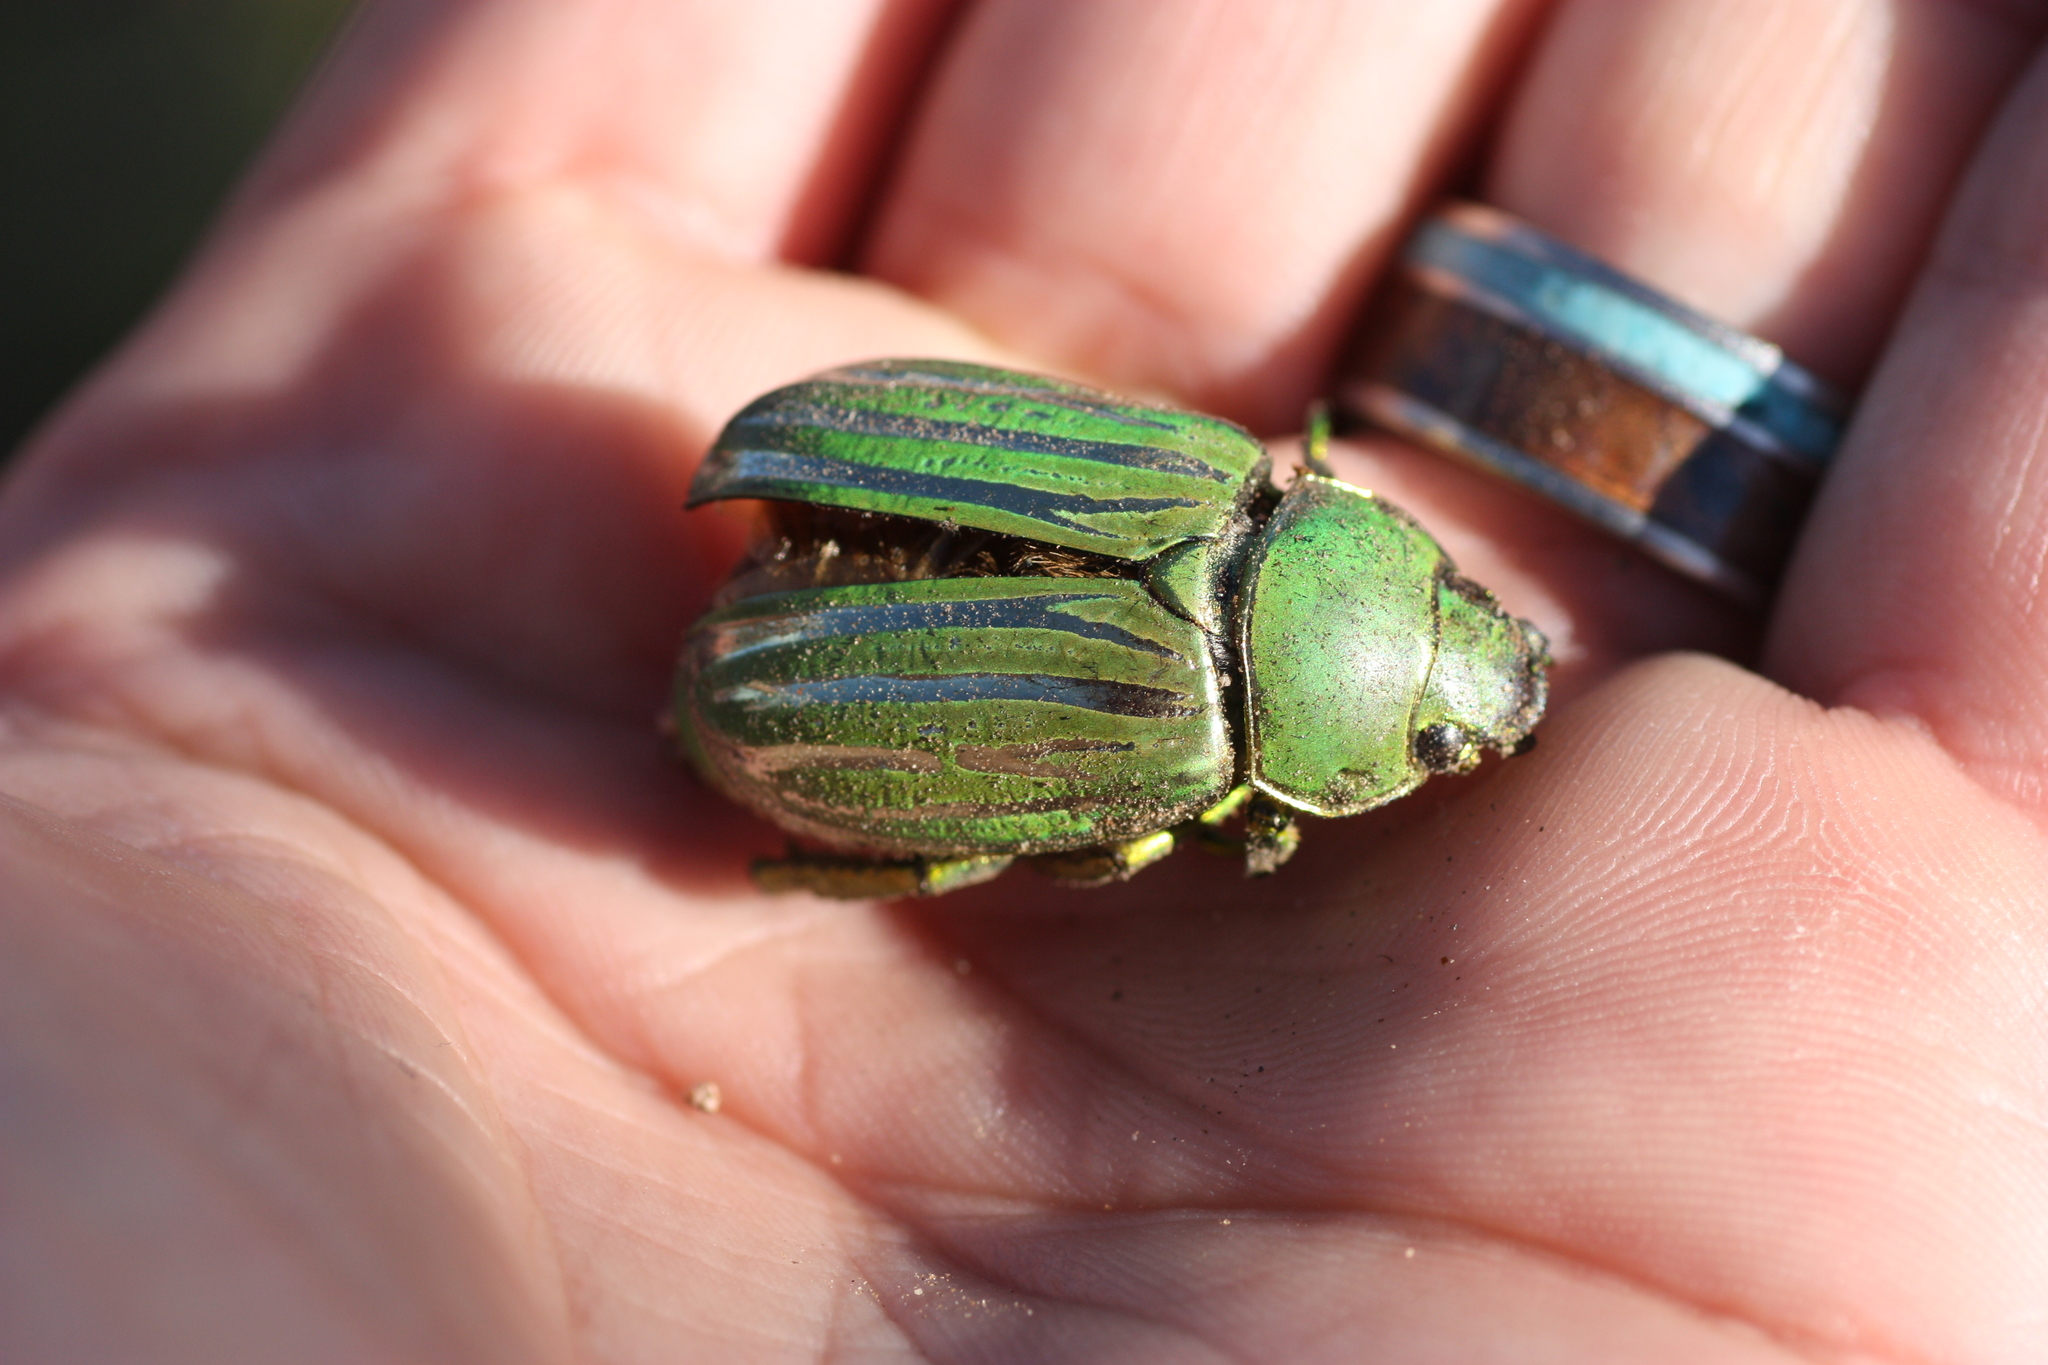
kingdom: Animalia
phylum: Arthropoda
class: Insecta
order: Coleoptera
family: Scarabaeidae
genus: Chrysina
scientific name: Chrysina gloriosa
